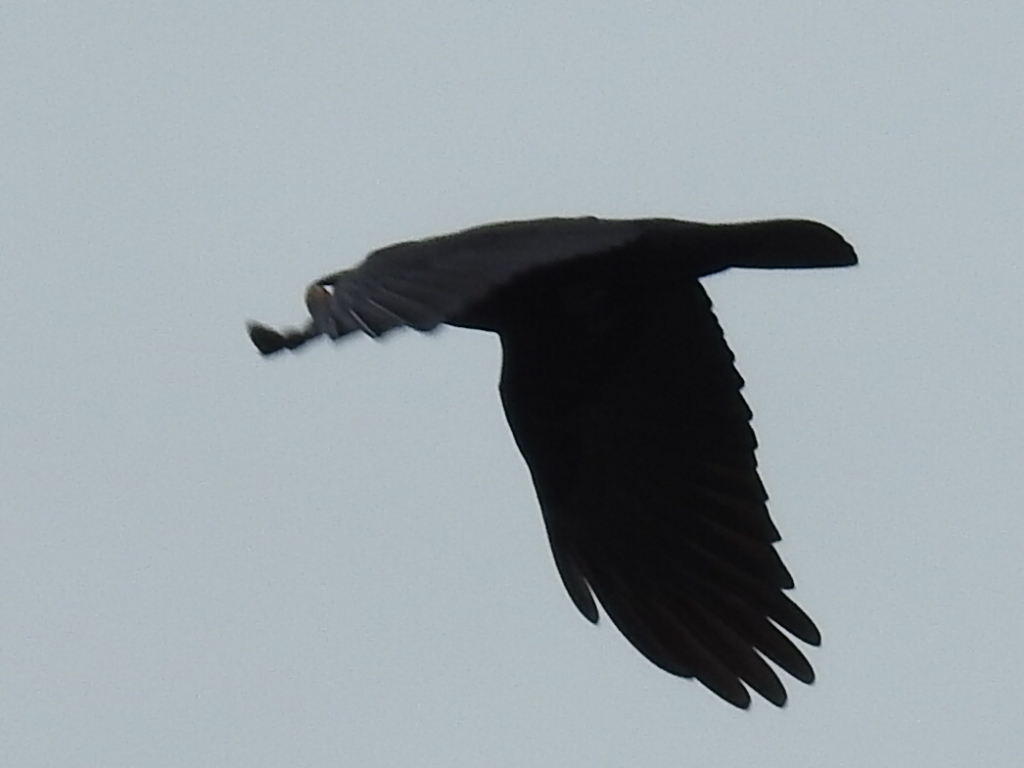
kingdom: Animalia
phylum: Chordata
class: Aves
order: Passeriformes
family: Corvidae
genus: Corvus
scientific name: Corvus brachyrhynchos
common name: American crow
